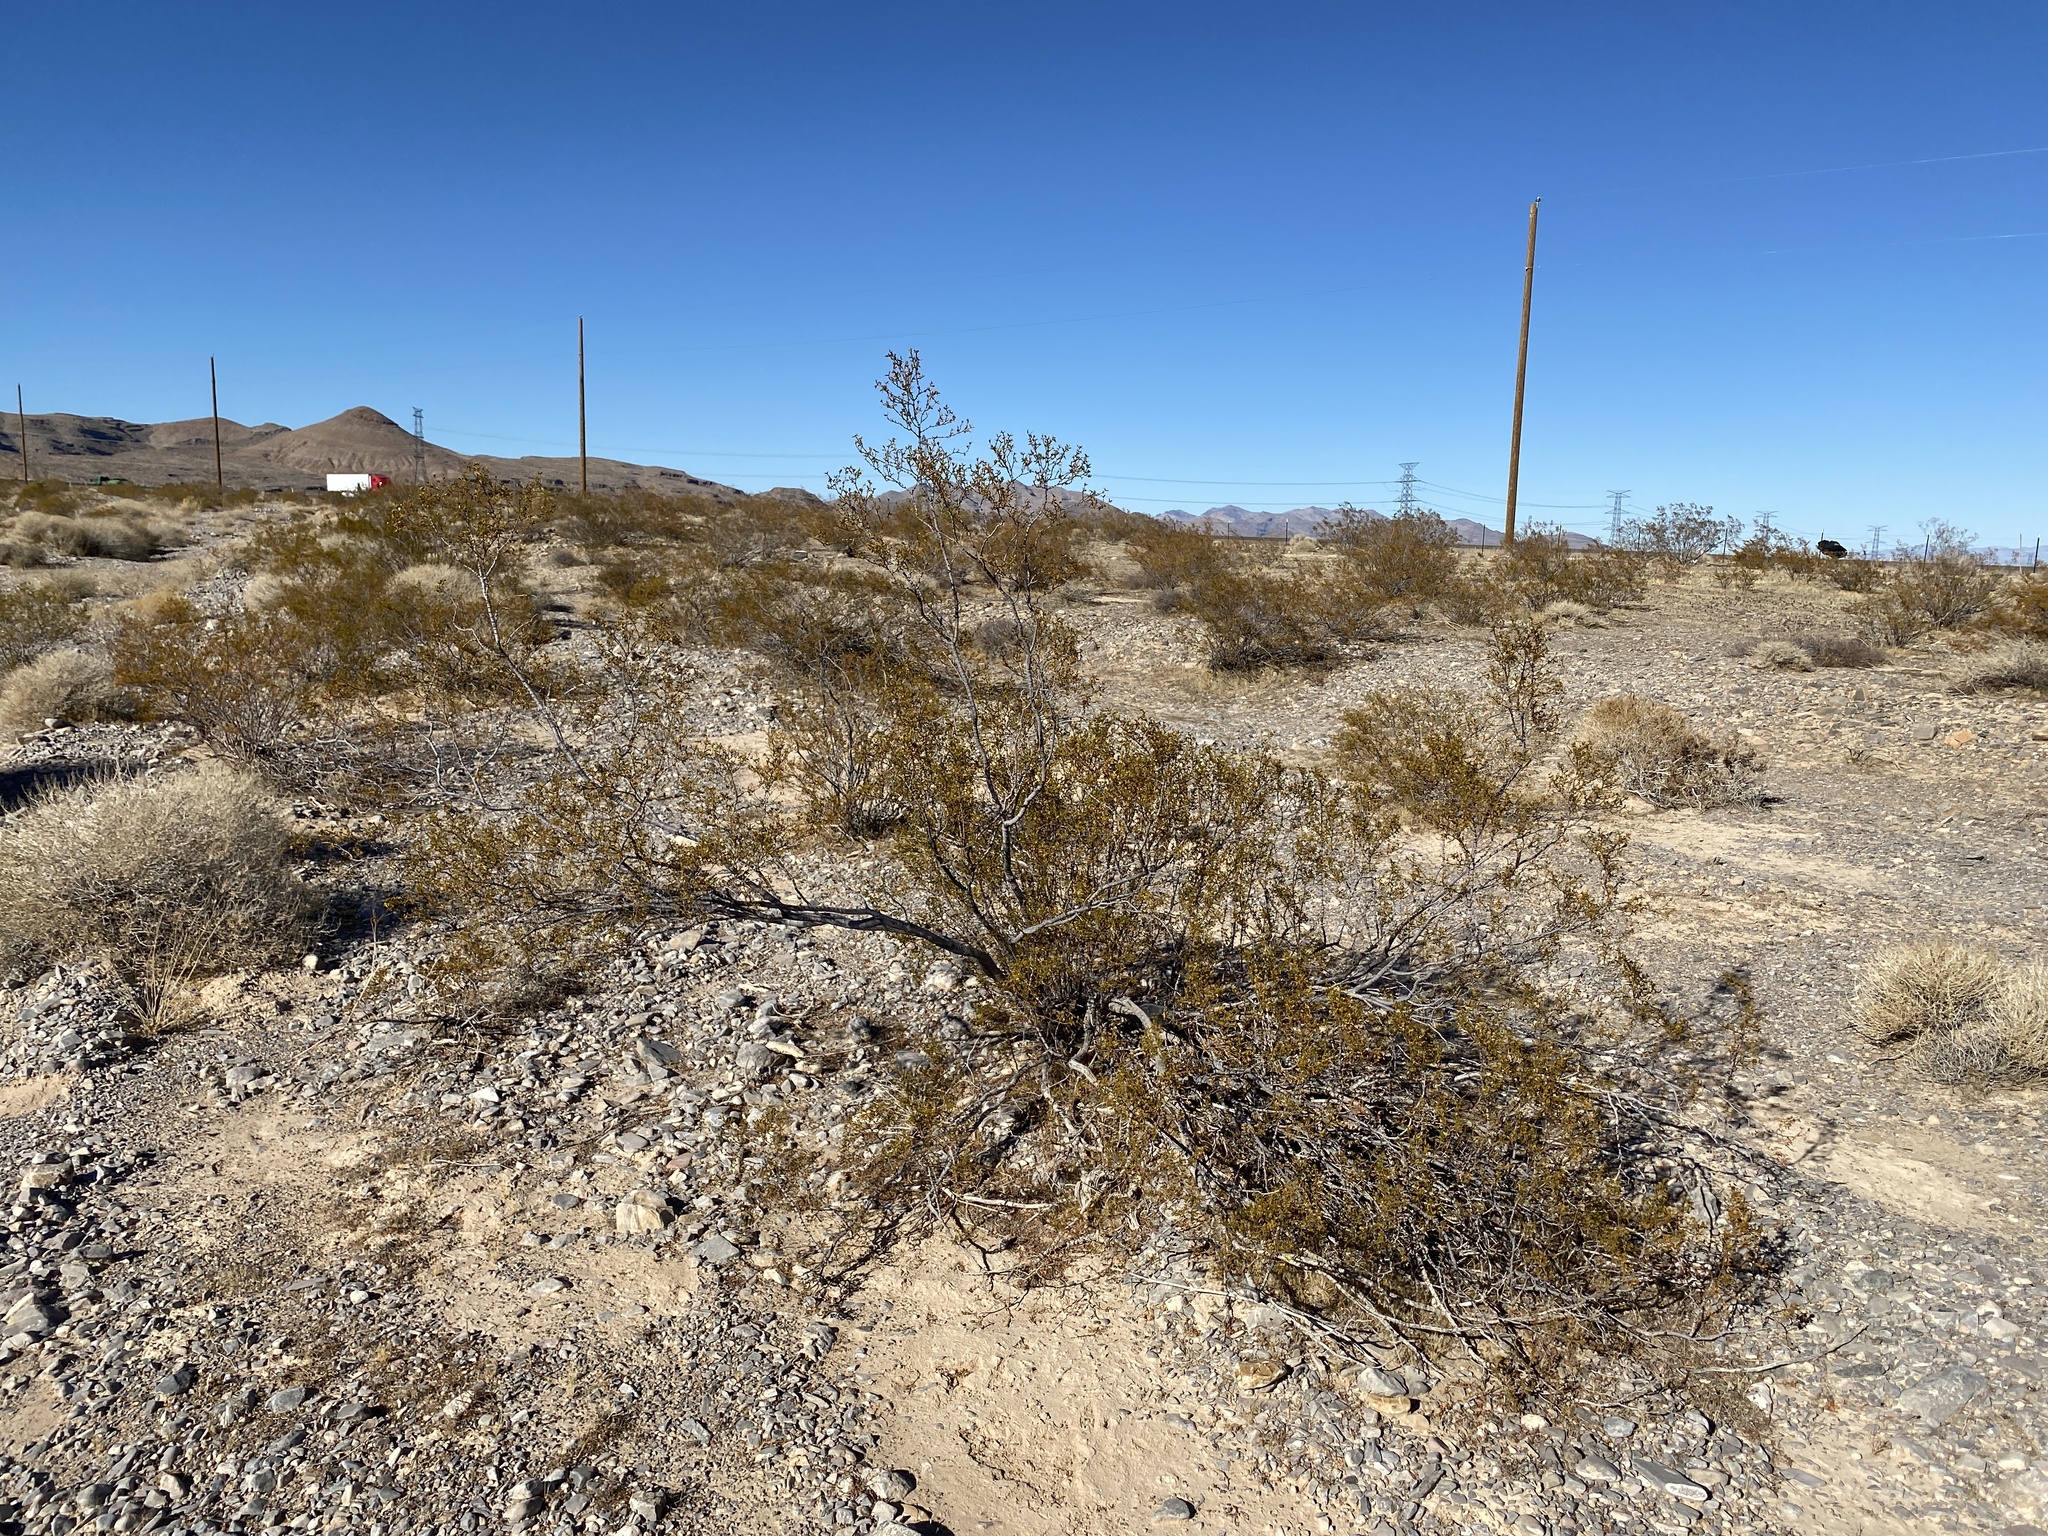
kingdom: Plantae
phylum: Tracheophyta
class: Magnoliopsida
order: Zygophyllales
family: Zygophyllaceae
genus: Larrea
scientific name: Larrea tridentata
